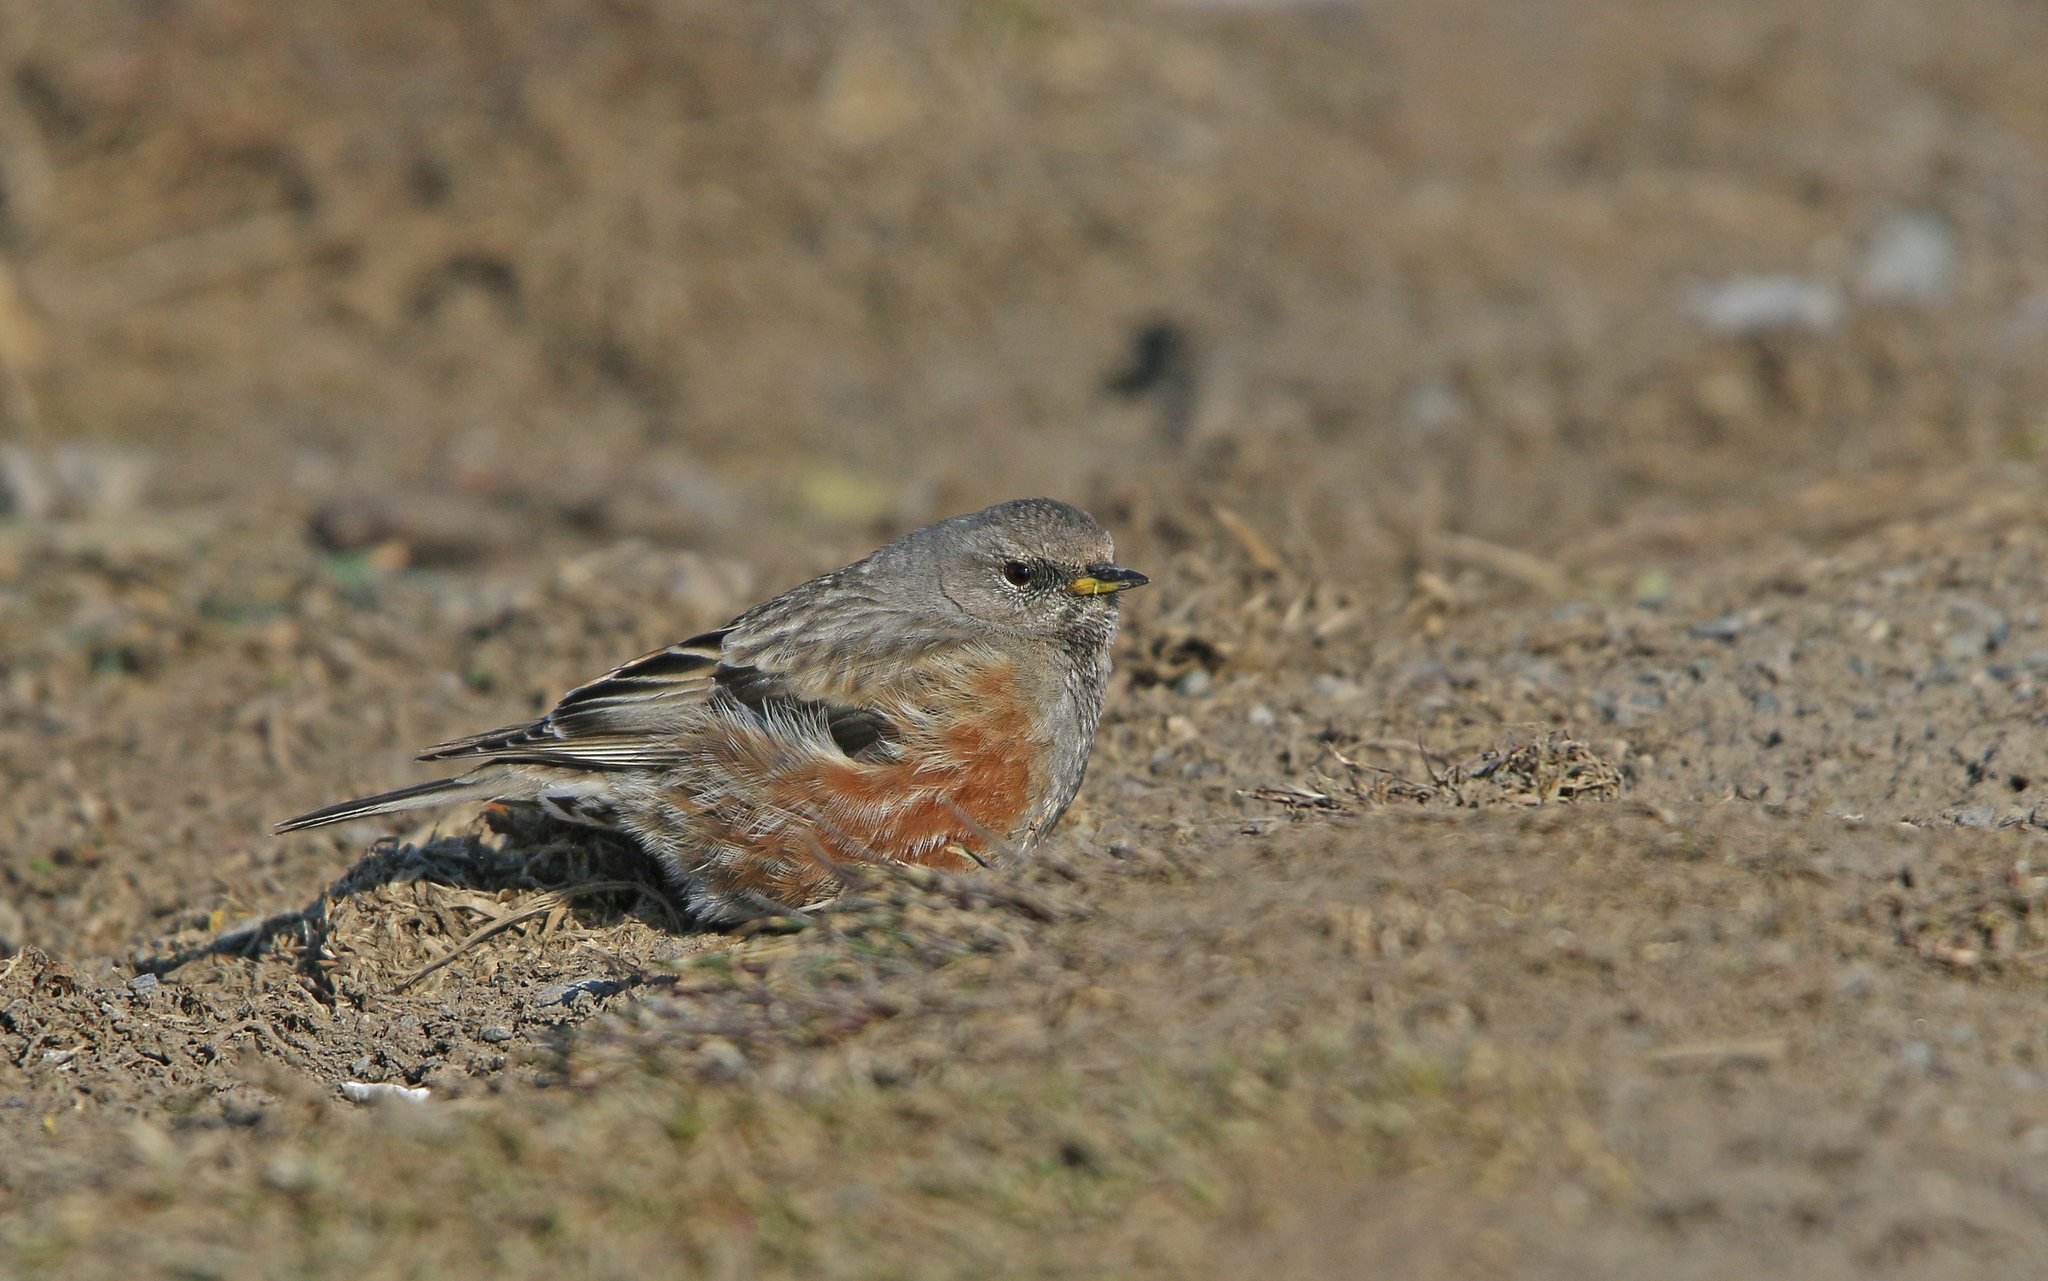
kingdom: Animalia
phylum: Chordata
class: Aves
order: Passeriformes
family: Prunellidae
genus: Prunella
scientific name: Prunella collaris
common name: Alpine accentor
